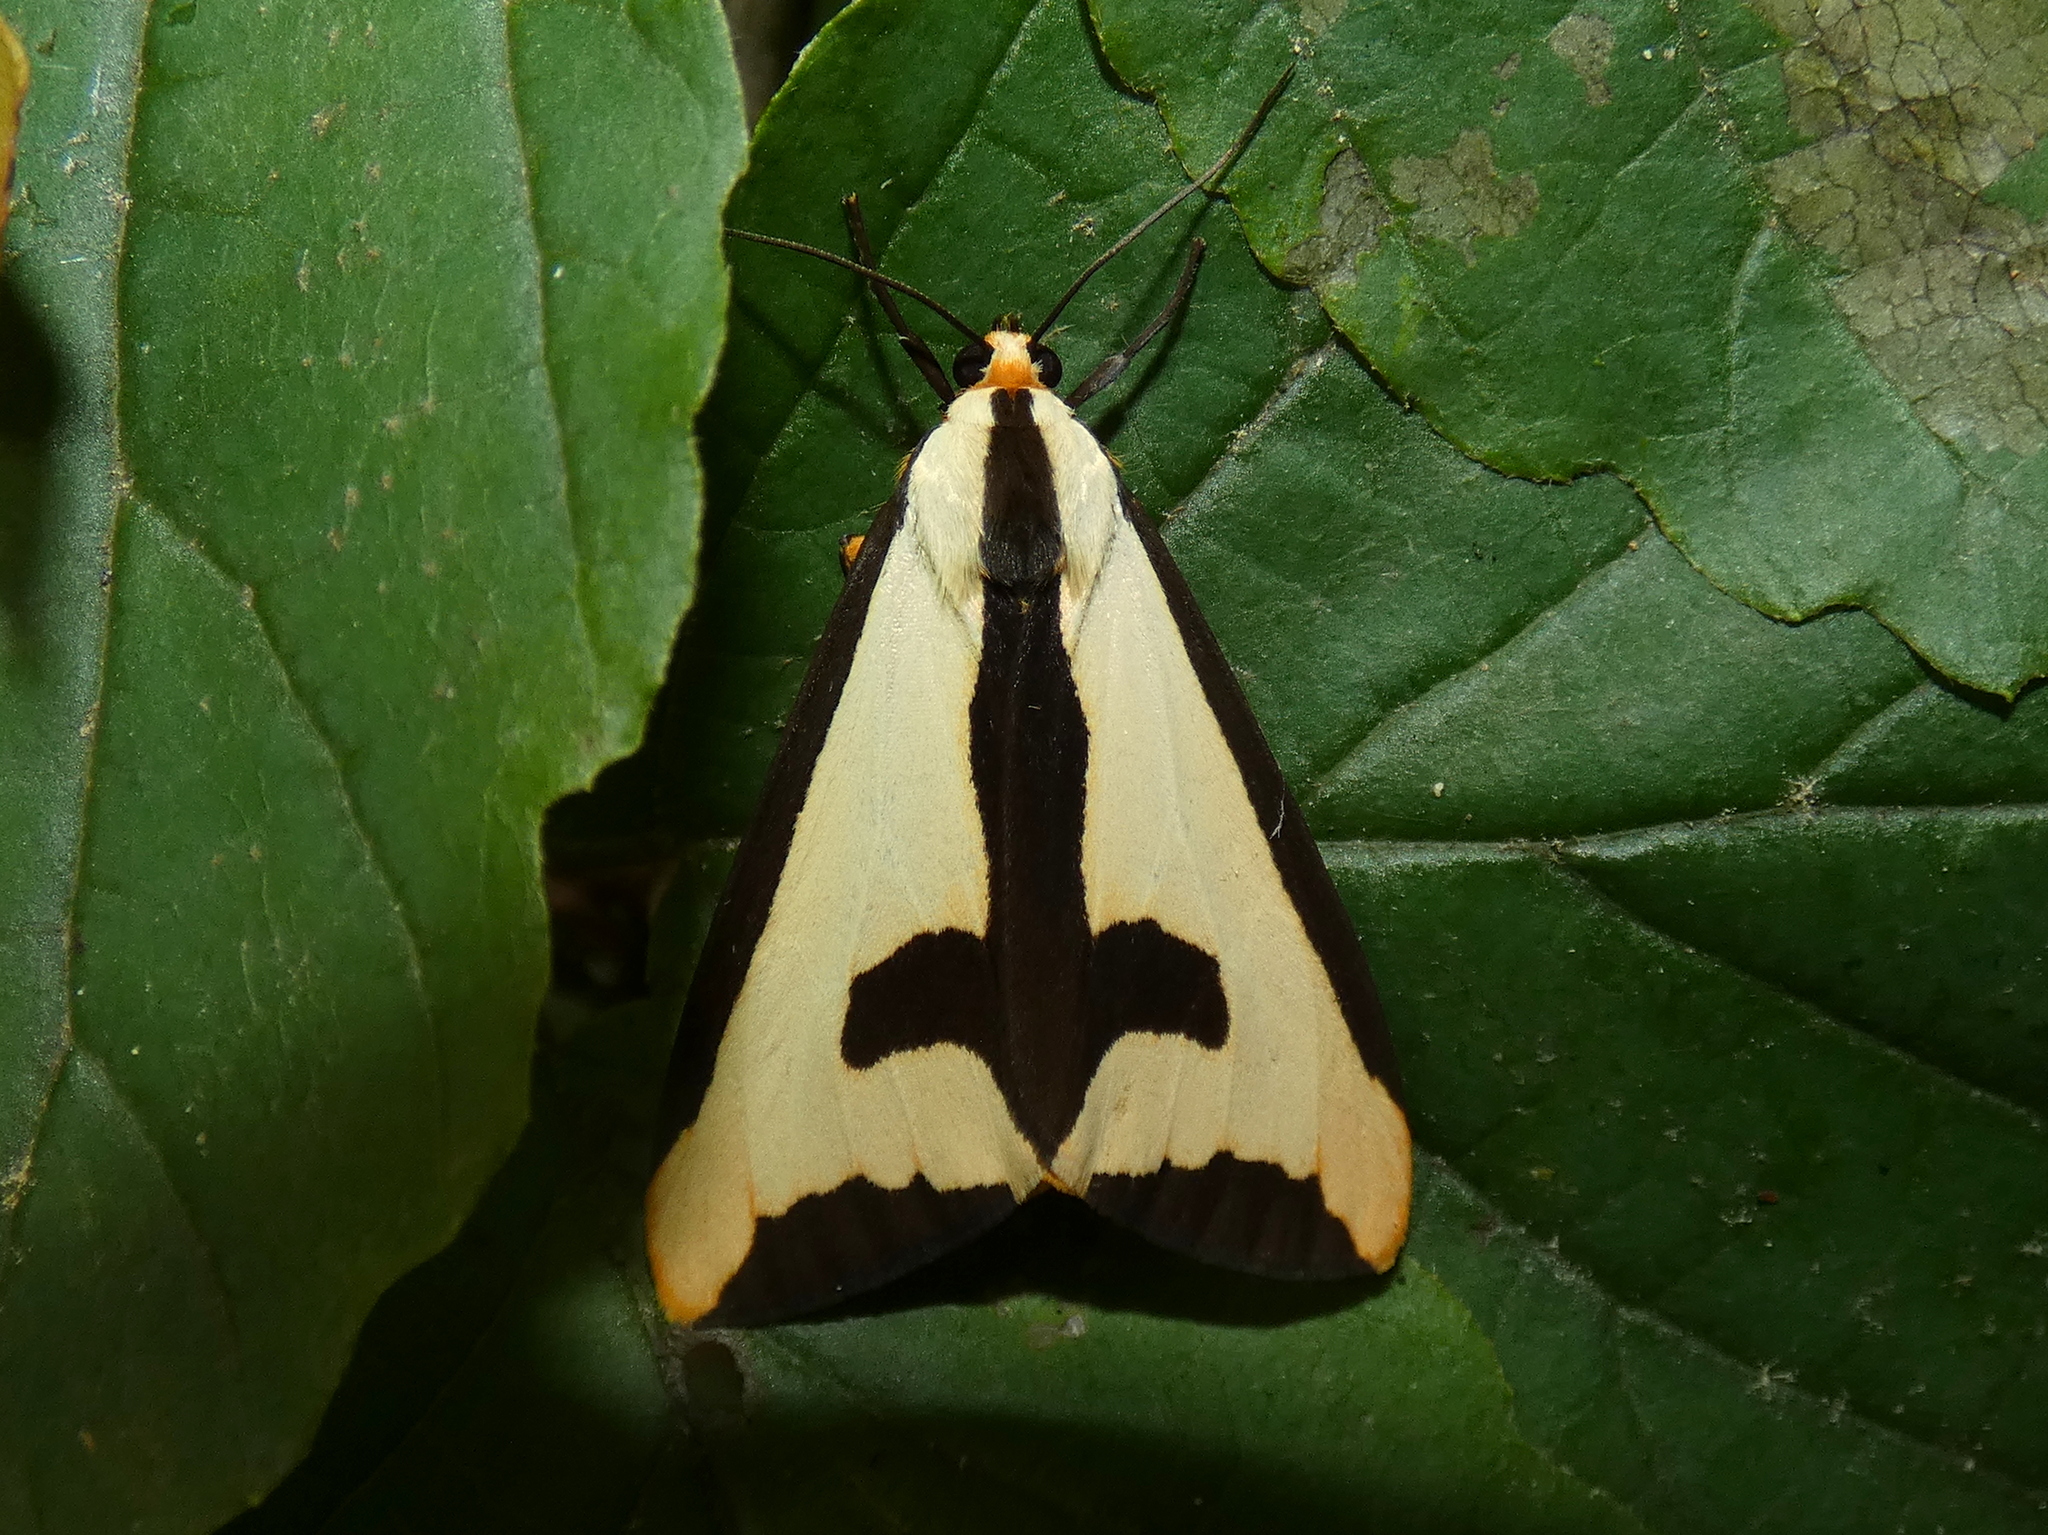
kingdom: Animalia
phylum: Arthropoda
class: Insecta
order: Lepidoptera
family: Erebidae
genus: Haploa
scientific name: Haploa clymene
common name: Clymene moth
